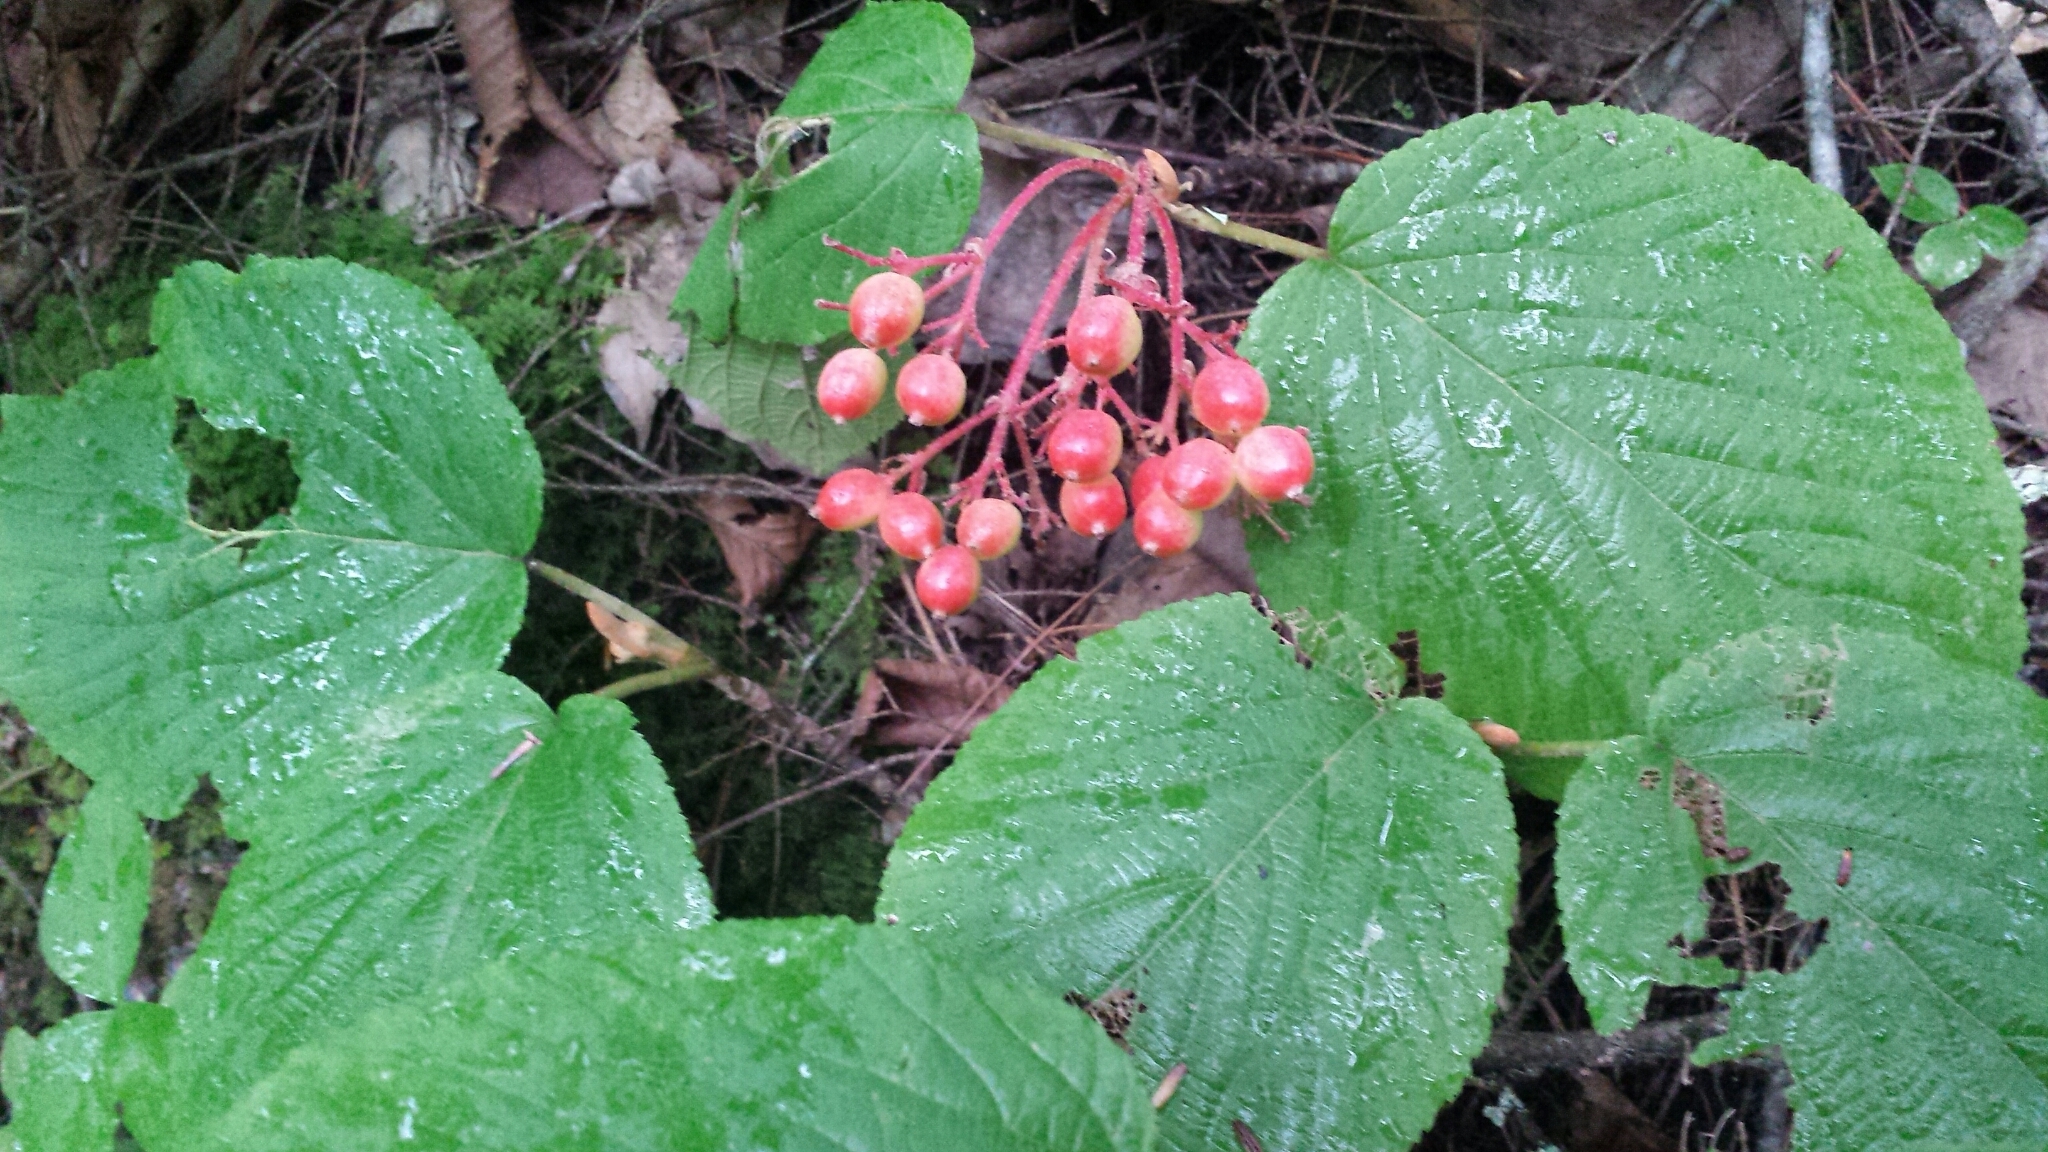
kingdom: Plantae
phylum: Tracheophyta
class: Magnoliopsida
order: Dipsacales
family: Viburnaceae
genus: Viburnum
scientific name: Viburnum lantanoides
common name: Hobblebush
